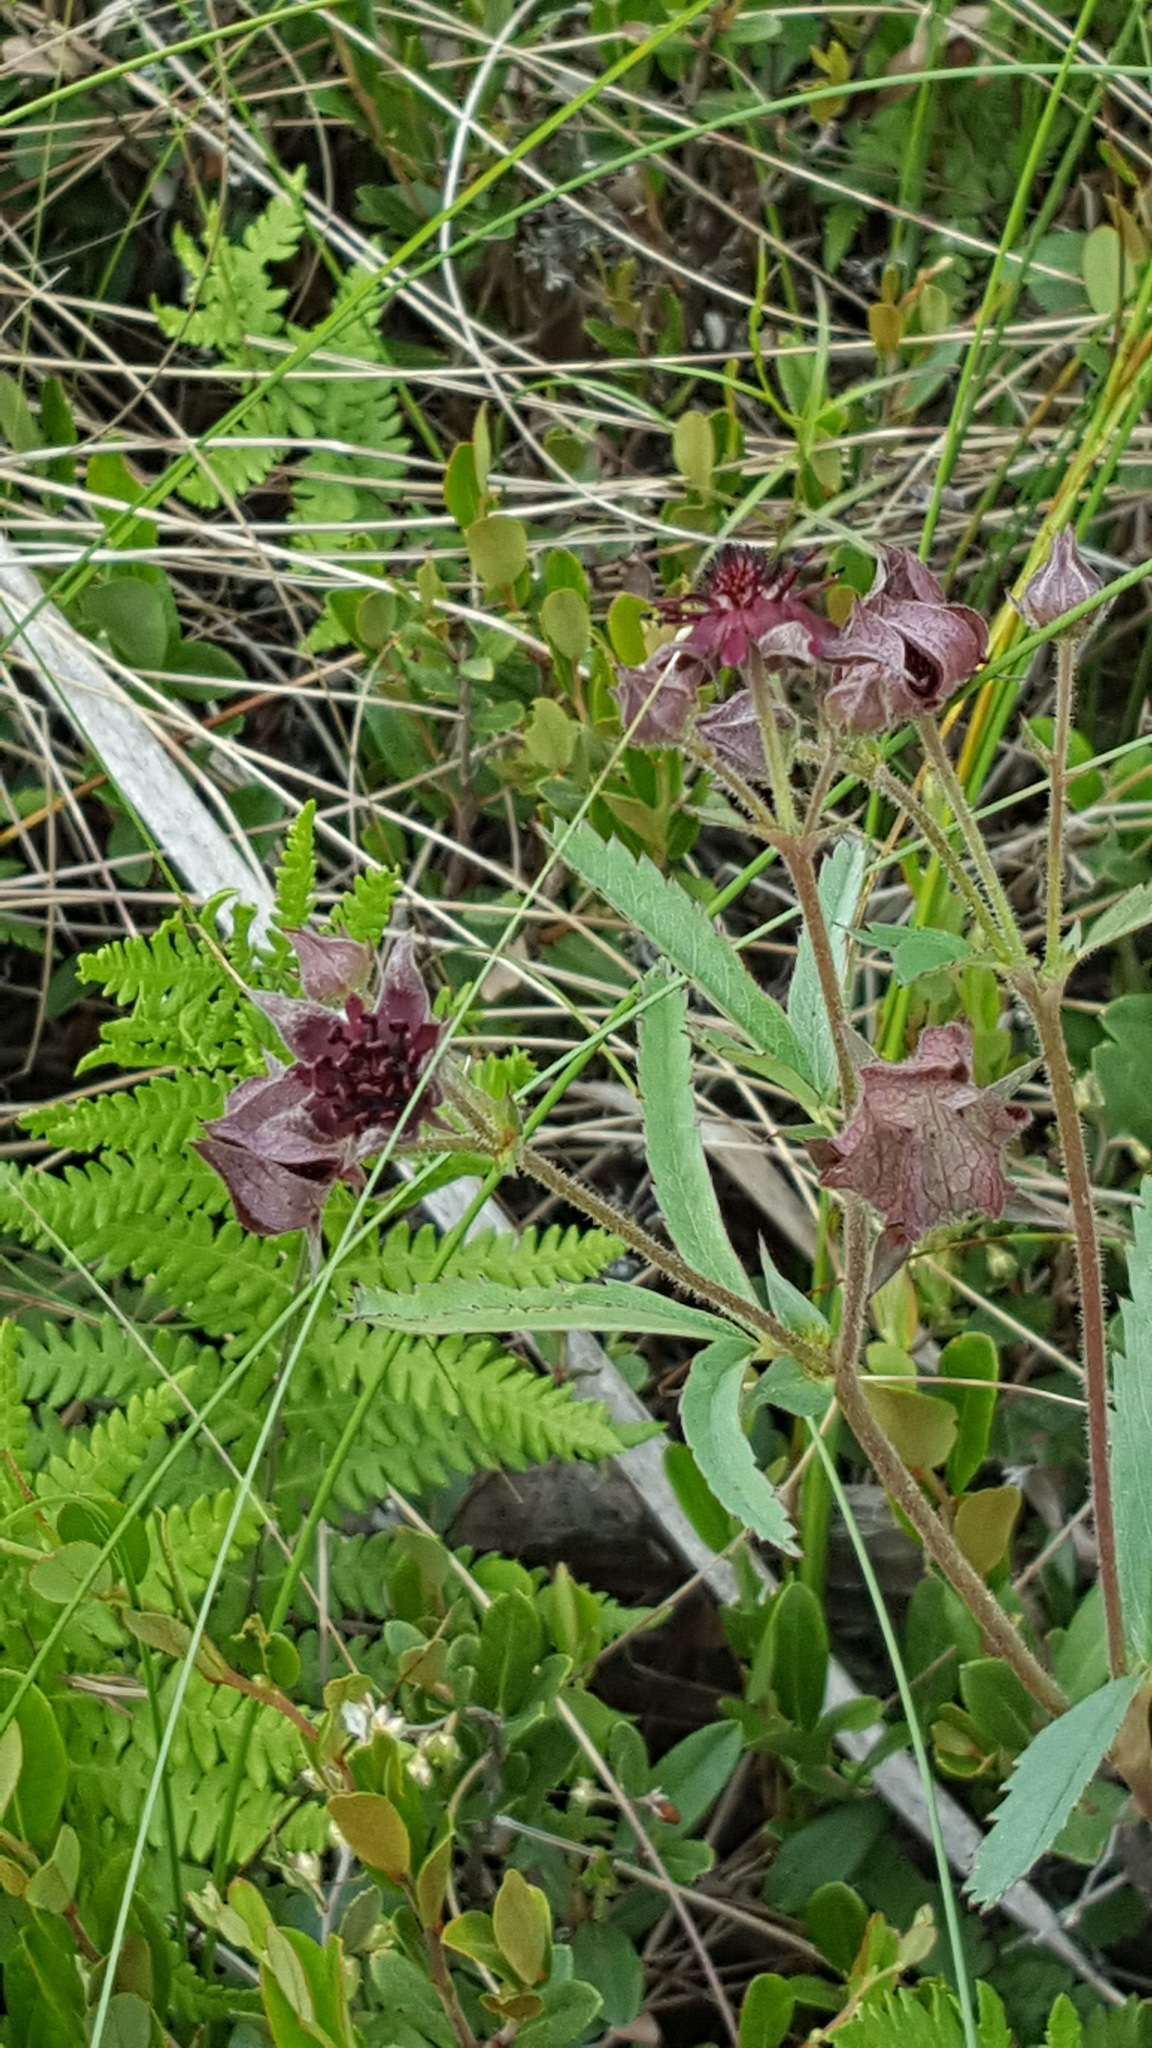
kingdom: Plantae
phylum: Tracheophyta
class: Magnoliopsida
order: Rosales
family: Rosaceae
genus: Comarum
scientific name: Comarum palustre
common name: Marsh cinquefoil
